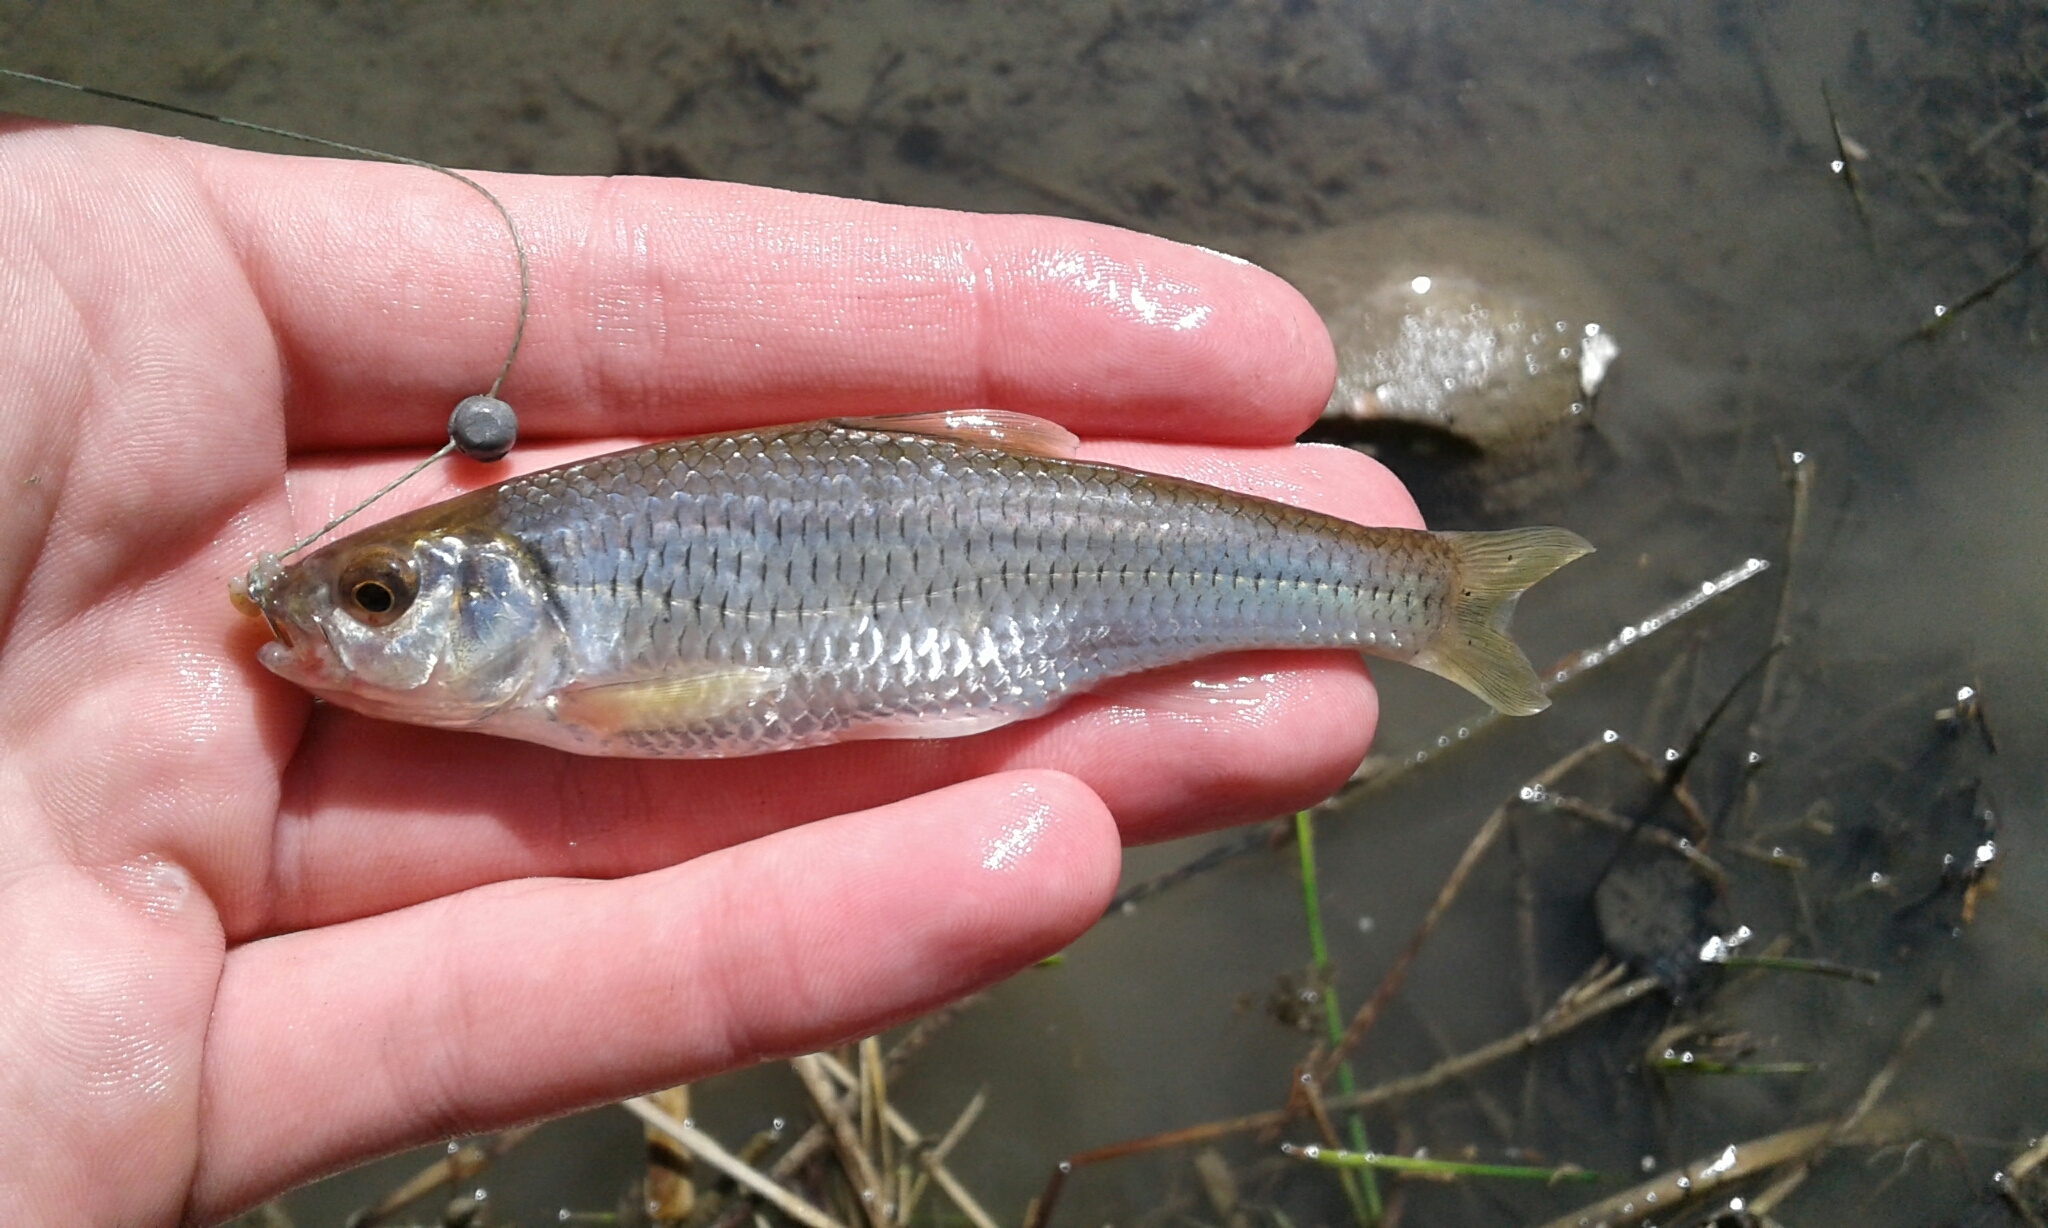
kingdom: Animalia
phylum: Chordata
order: Cypriniformes
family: Cyprinidae
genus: Luxilus
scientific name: Luxilus chrysocephalus
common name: Striped shiner
